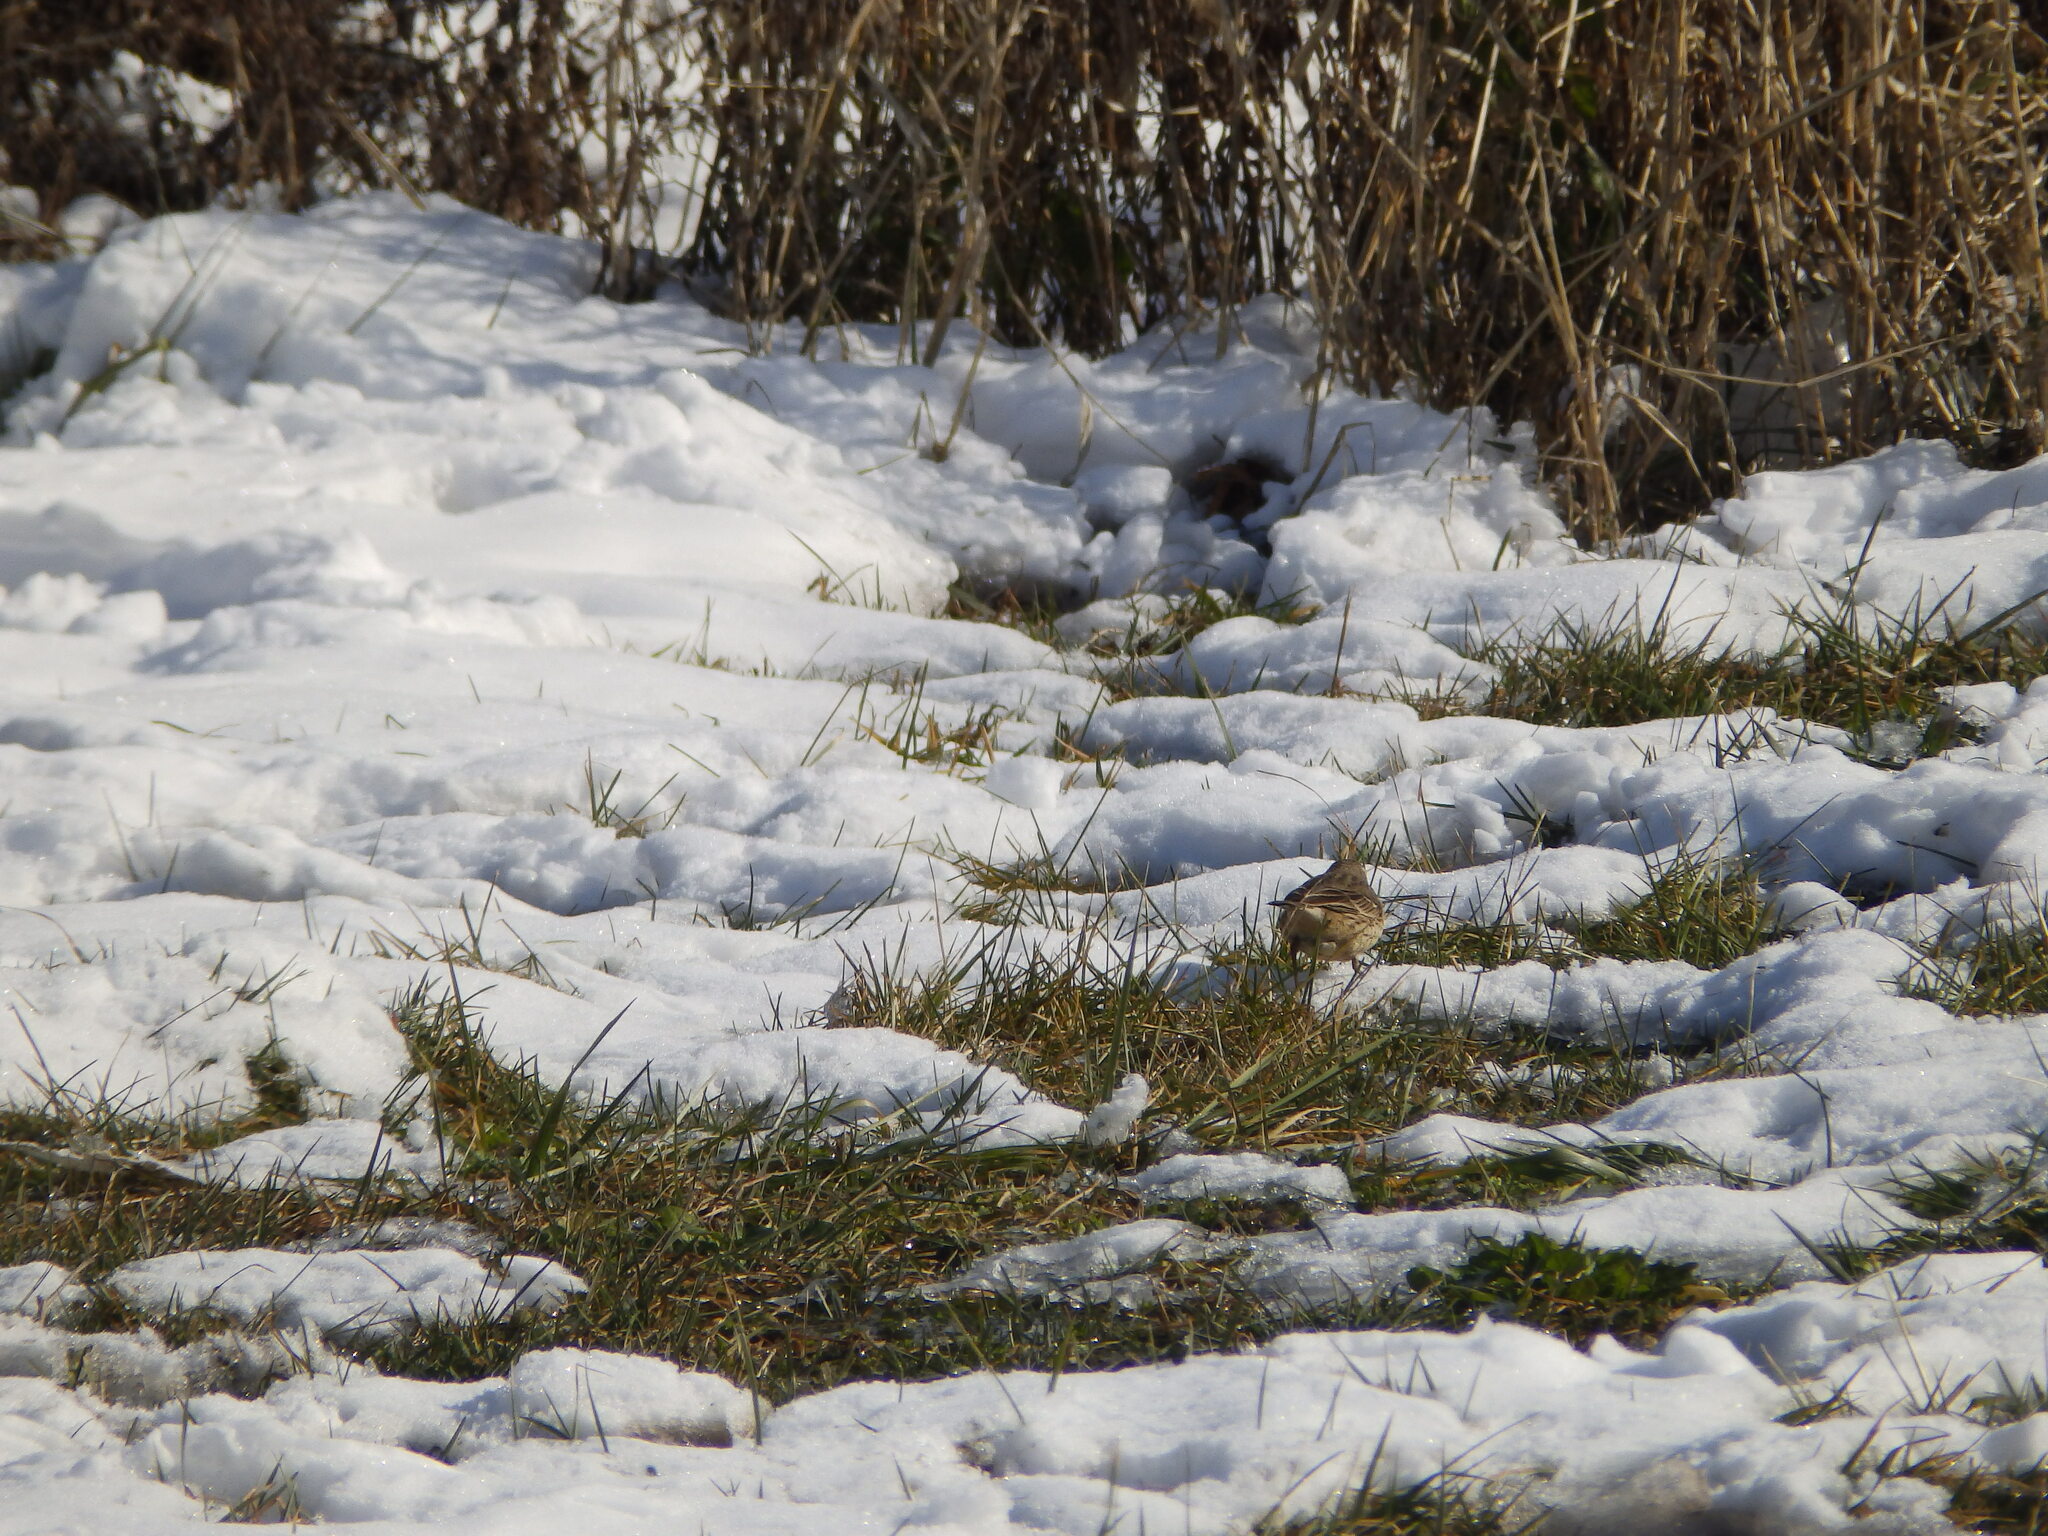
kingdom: Animalia
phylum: Chordata
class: Aves
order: Passeriformes
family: Motacillidae
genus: Anthus
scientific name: Anthus rubescens
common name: Buff-bellied pipit
